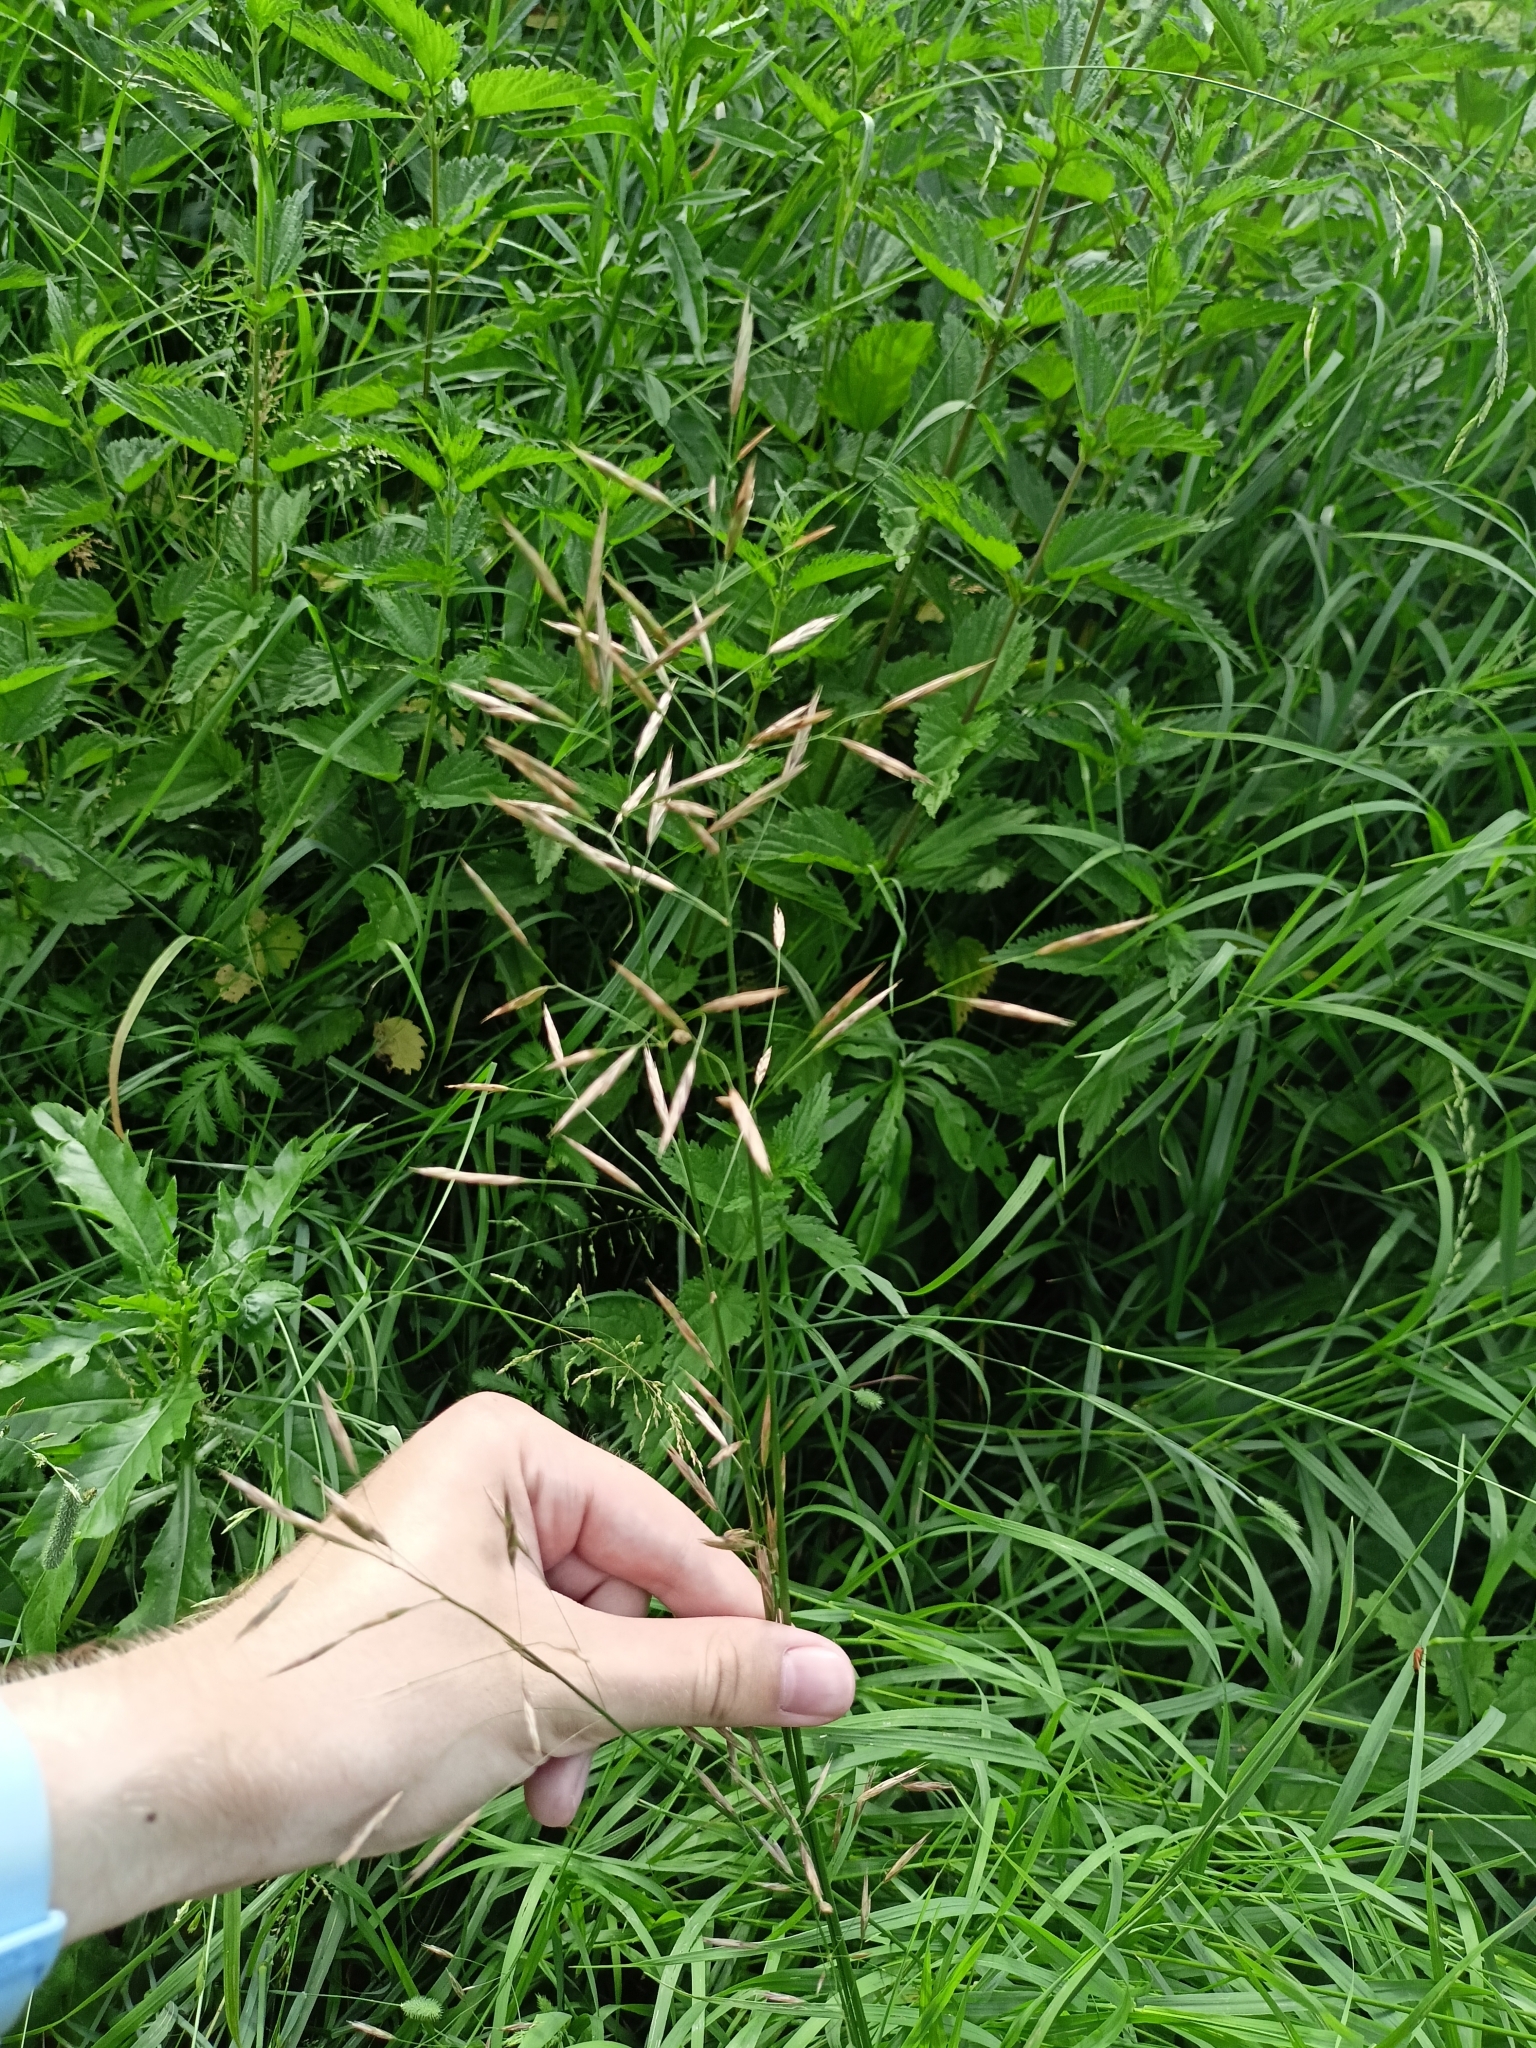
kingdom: Plantae
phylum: Tracheophyta
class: Liliopsida
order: Poales
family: Poaceae
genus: Bromus
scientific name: Bromus inermis
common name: Smooth brome
